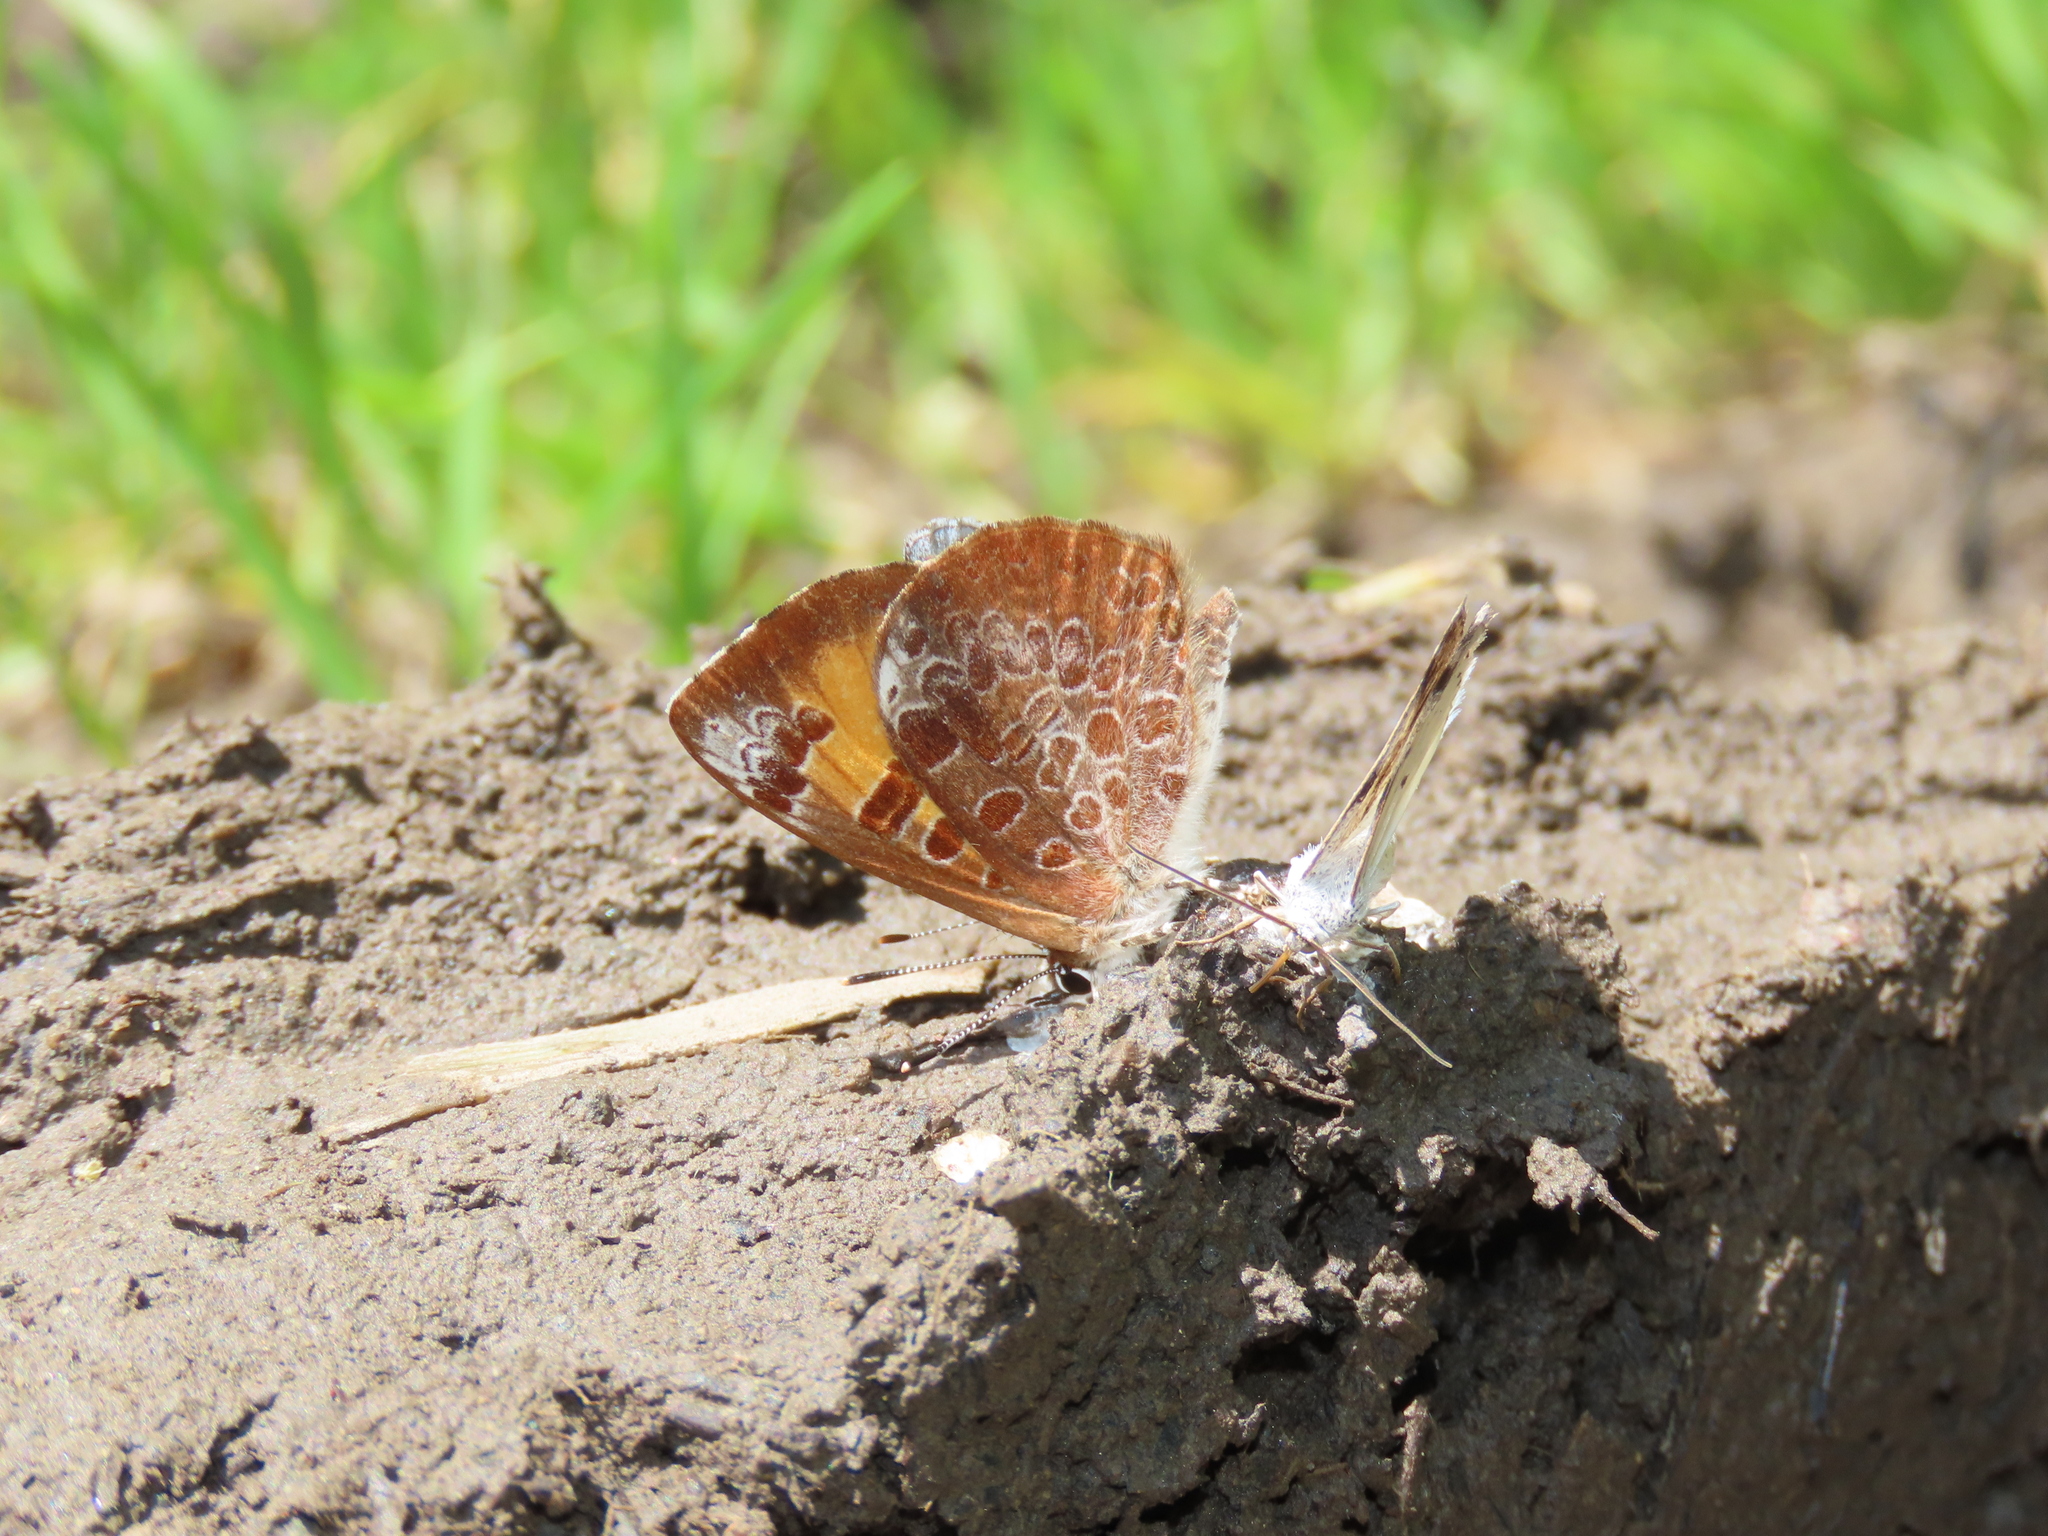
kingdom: Animalia
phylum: Arthropoda
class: Insecta
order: Lepidoptera
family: Lycaenidae
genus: Feniseca
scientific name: Feniseca tarquinius
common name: Harvester
